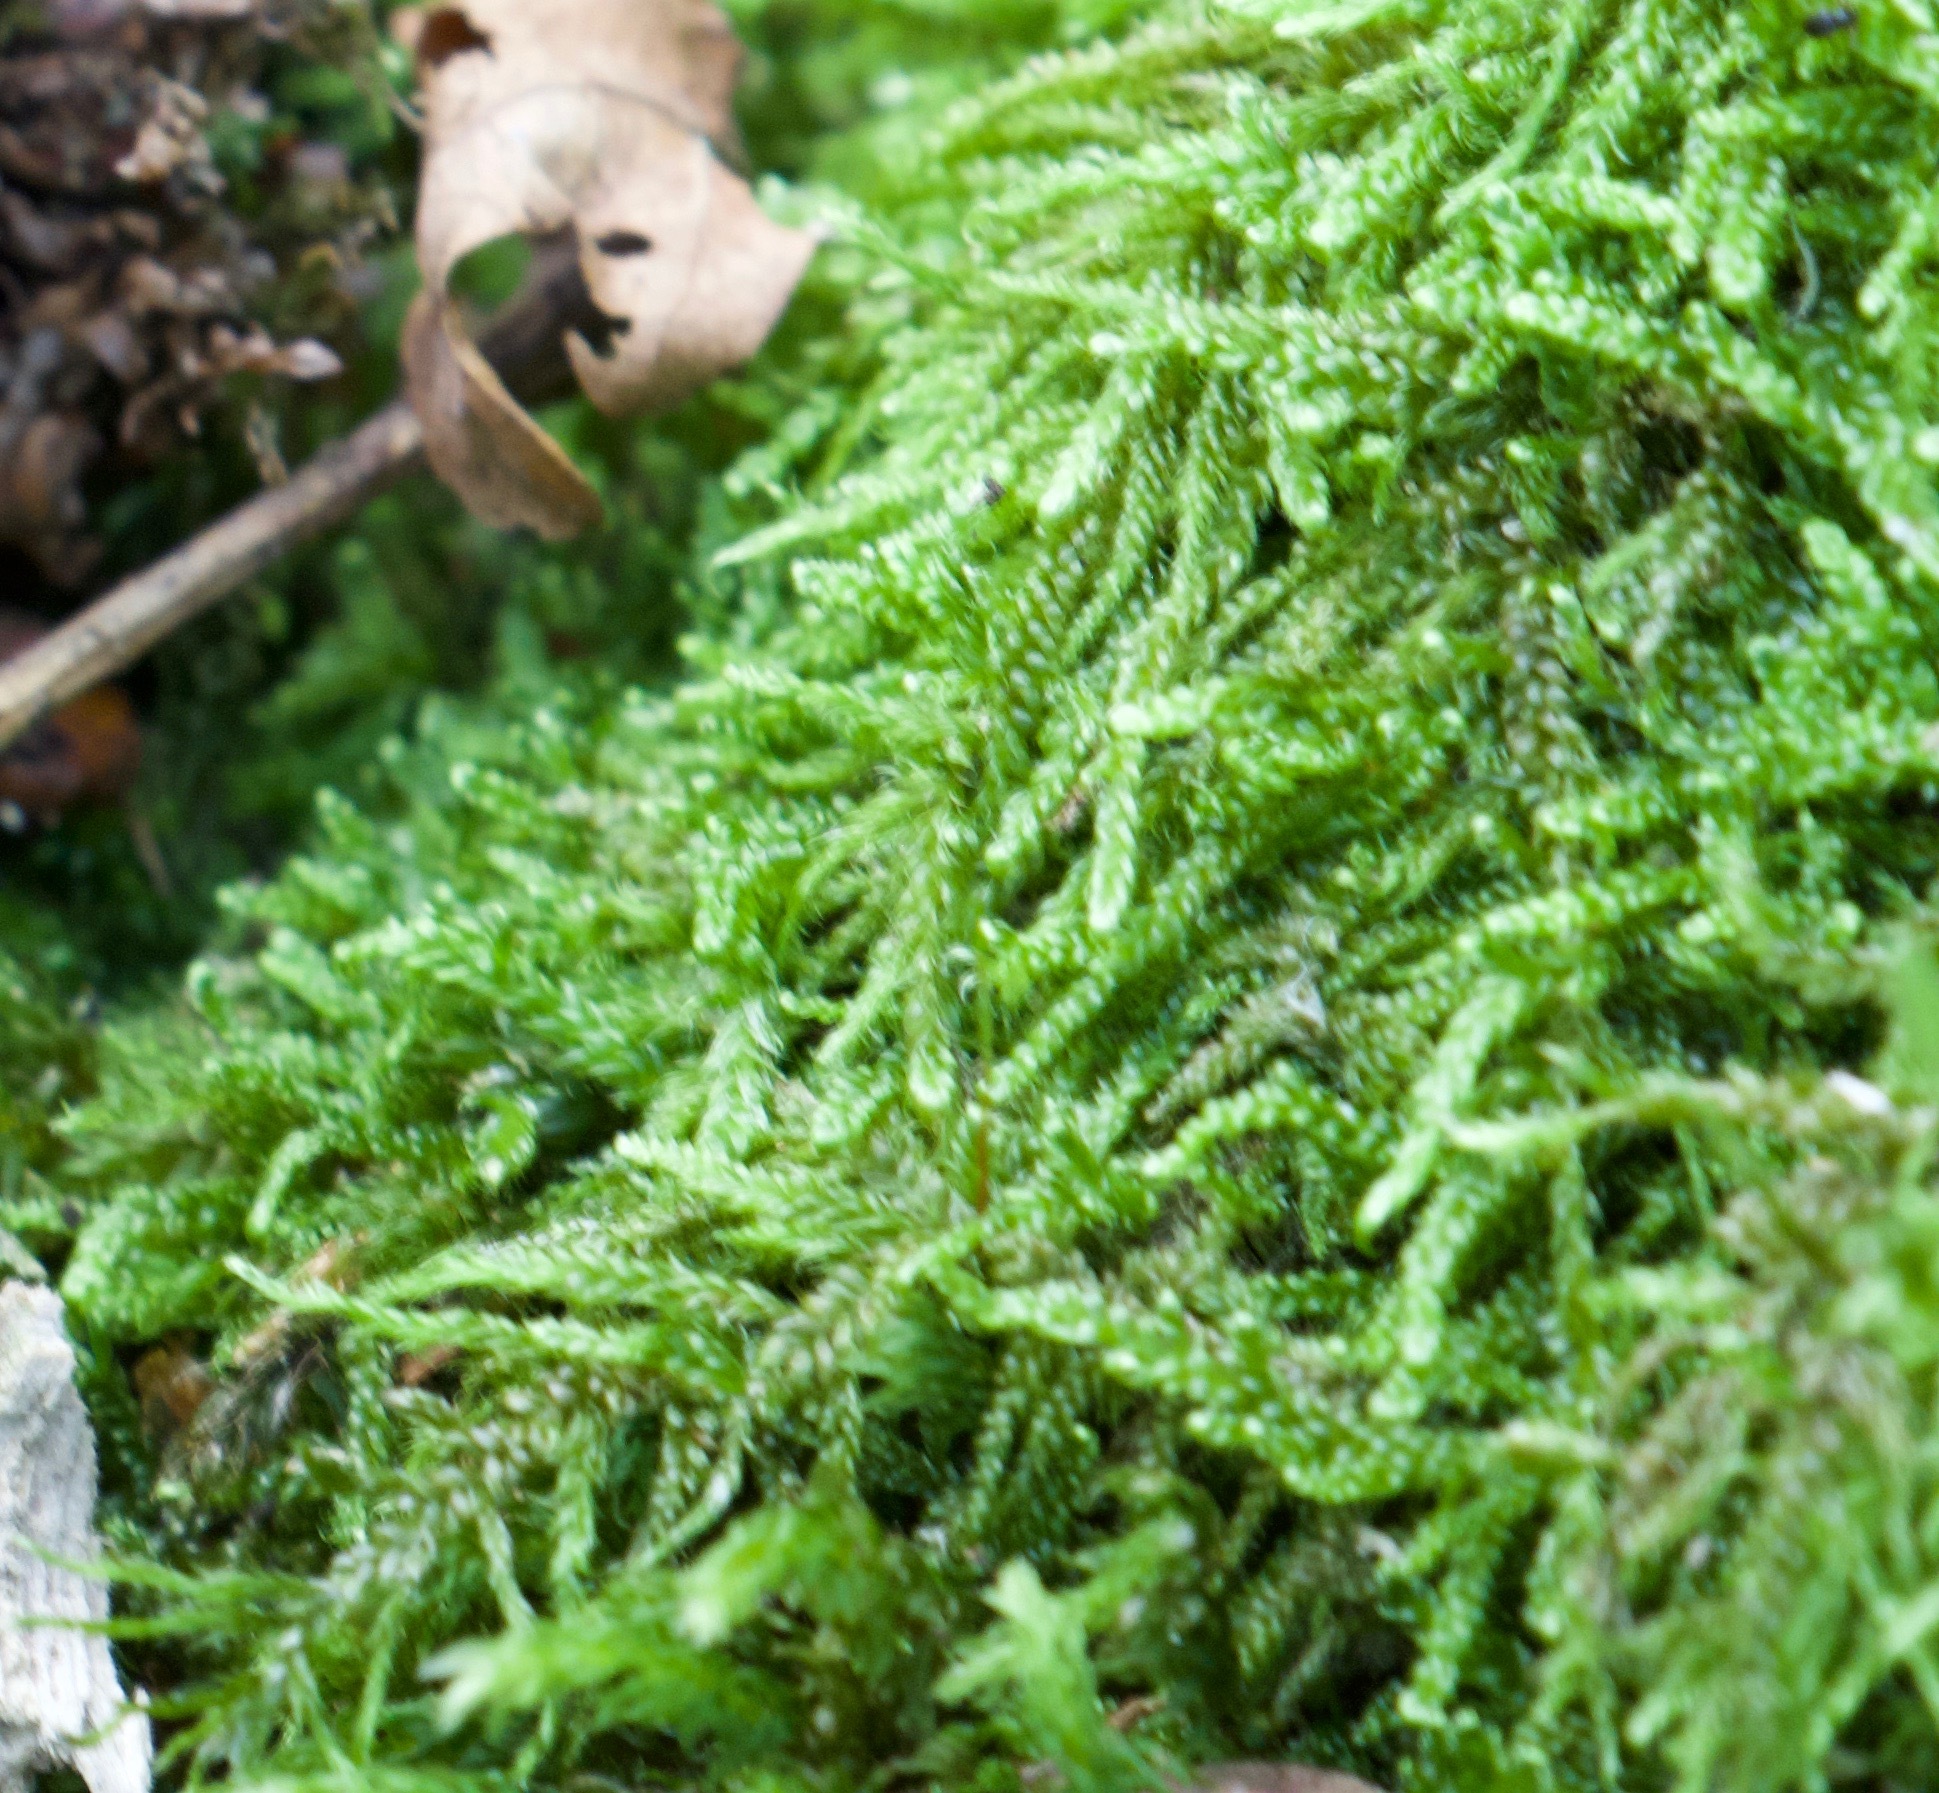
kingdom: Plantae
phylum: Bryophyta
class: Bryopsida
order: Hypnales
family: Hypnaceae
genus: Hypnum
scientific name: Hypnum cupressiforme
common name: Cypress-leaved plait-moss
